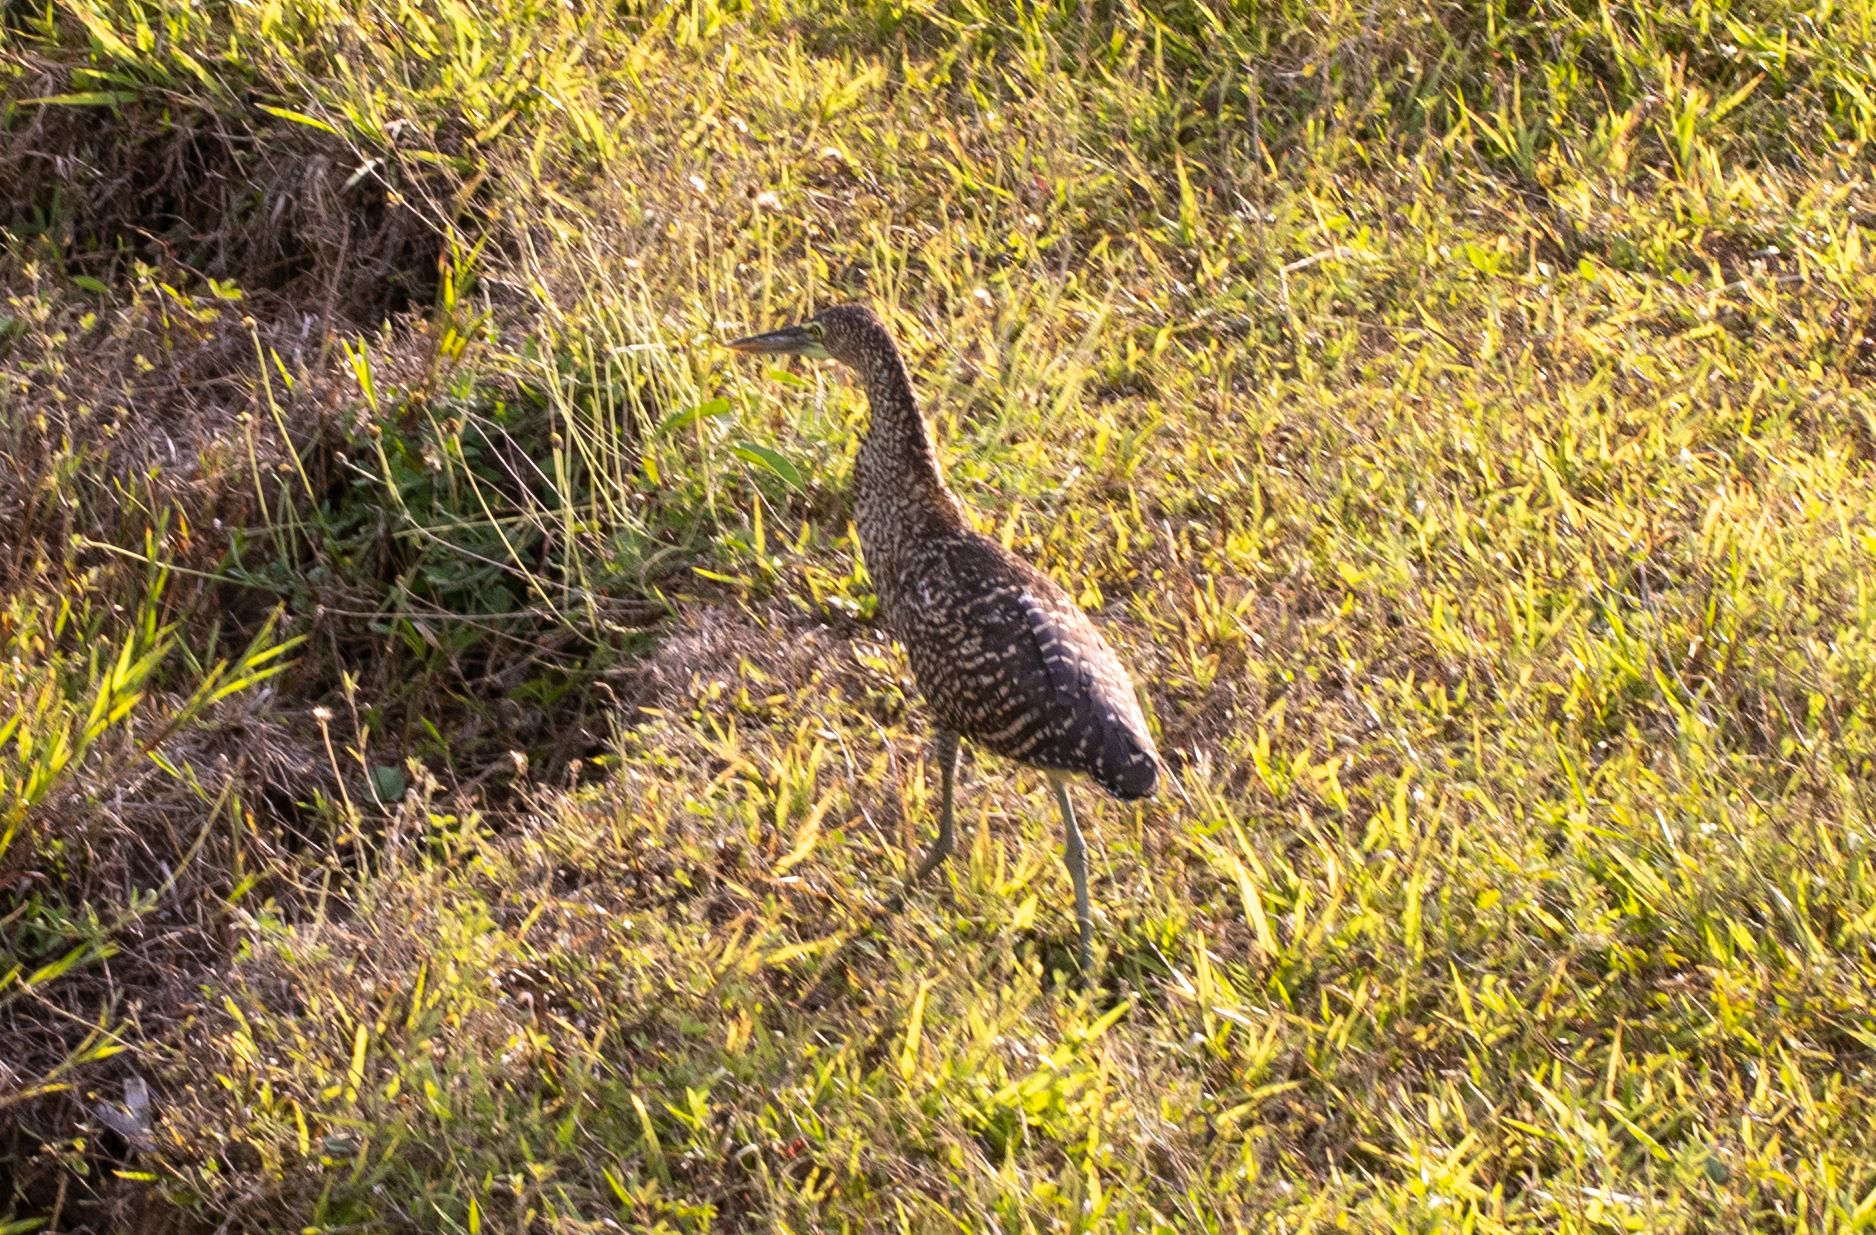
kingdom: Animalia
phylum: Chordata
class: Aves
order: Pelecaniformes
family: Ardeidae
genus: Tigrisoma
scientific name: Tigrisoma mexicanum
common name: Bare-throated tiger-heron
